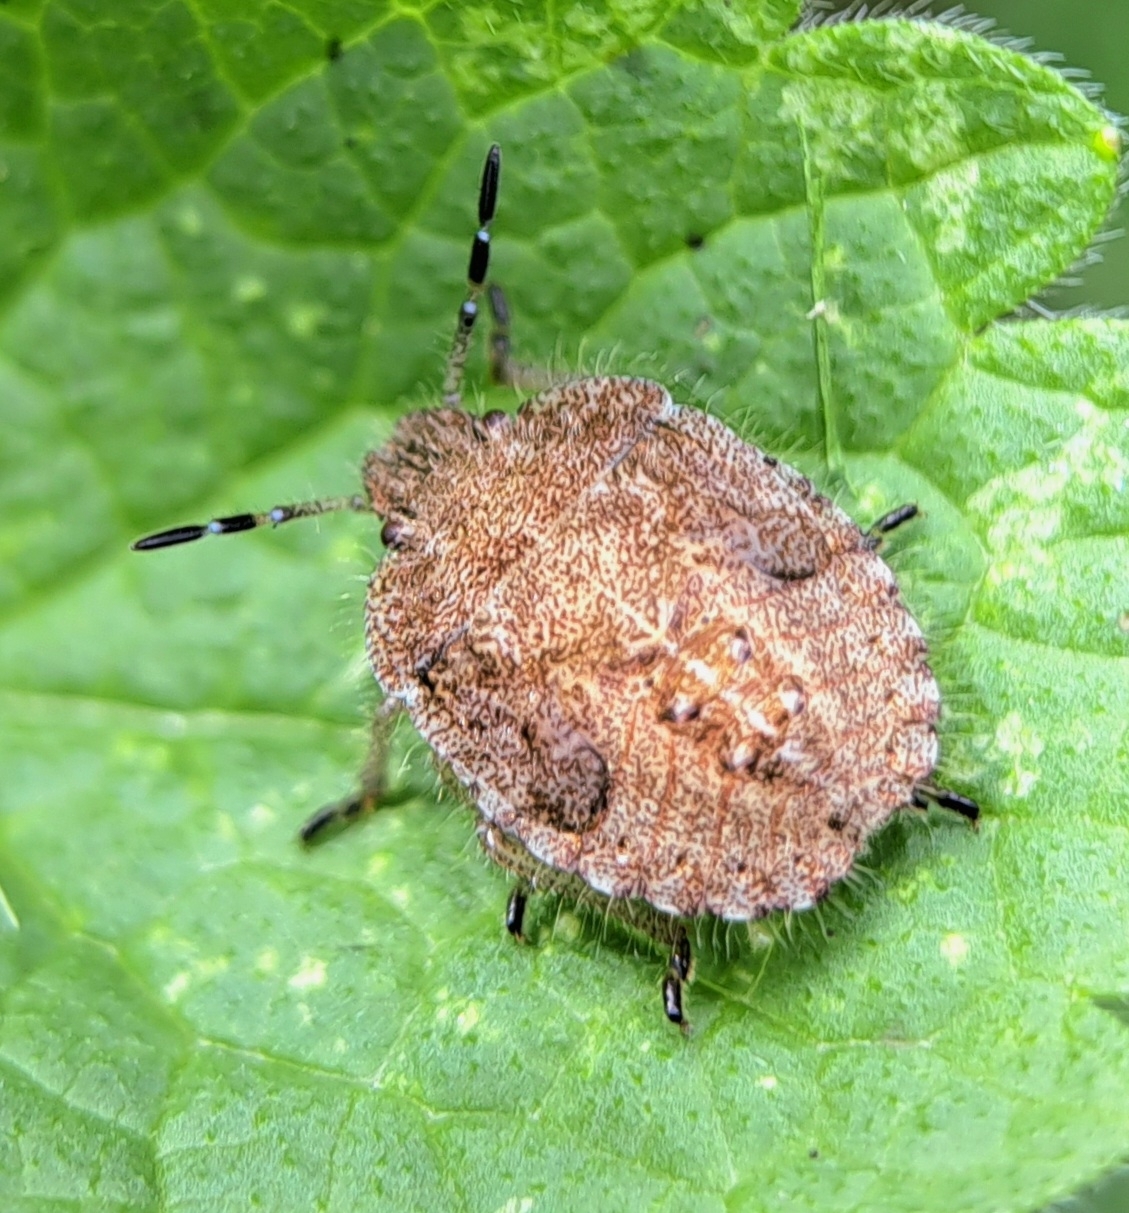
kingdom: Animalia
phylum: Arthropoda
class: Insecta
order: Hemiptera
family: Pentatomidae
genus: Dolycoris
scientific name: Dolycoris baccarum
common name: Sloe bug
